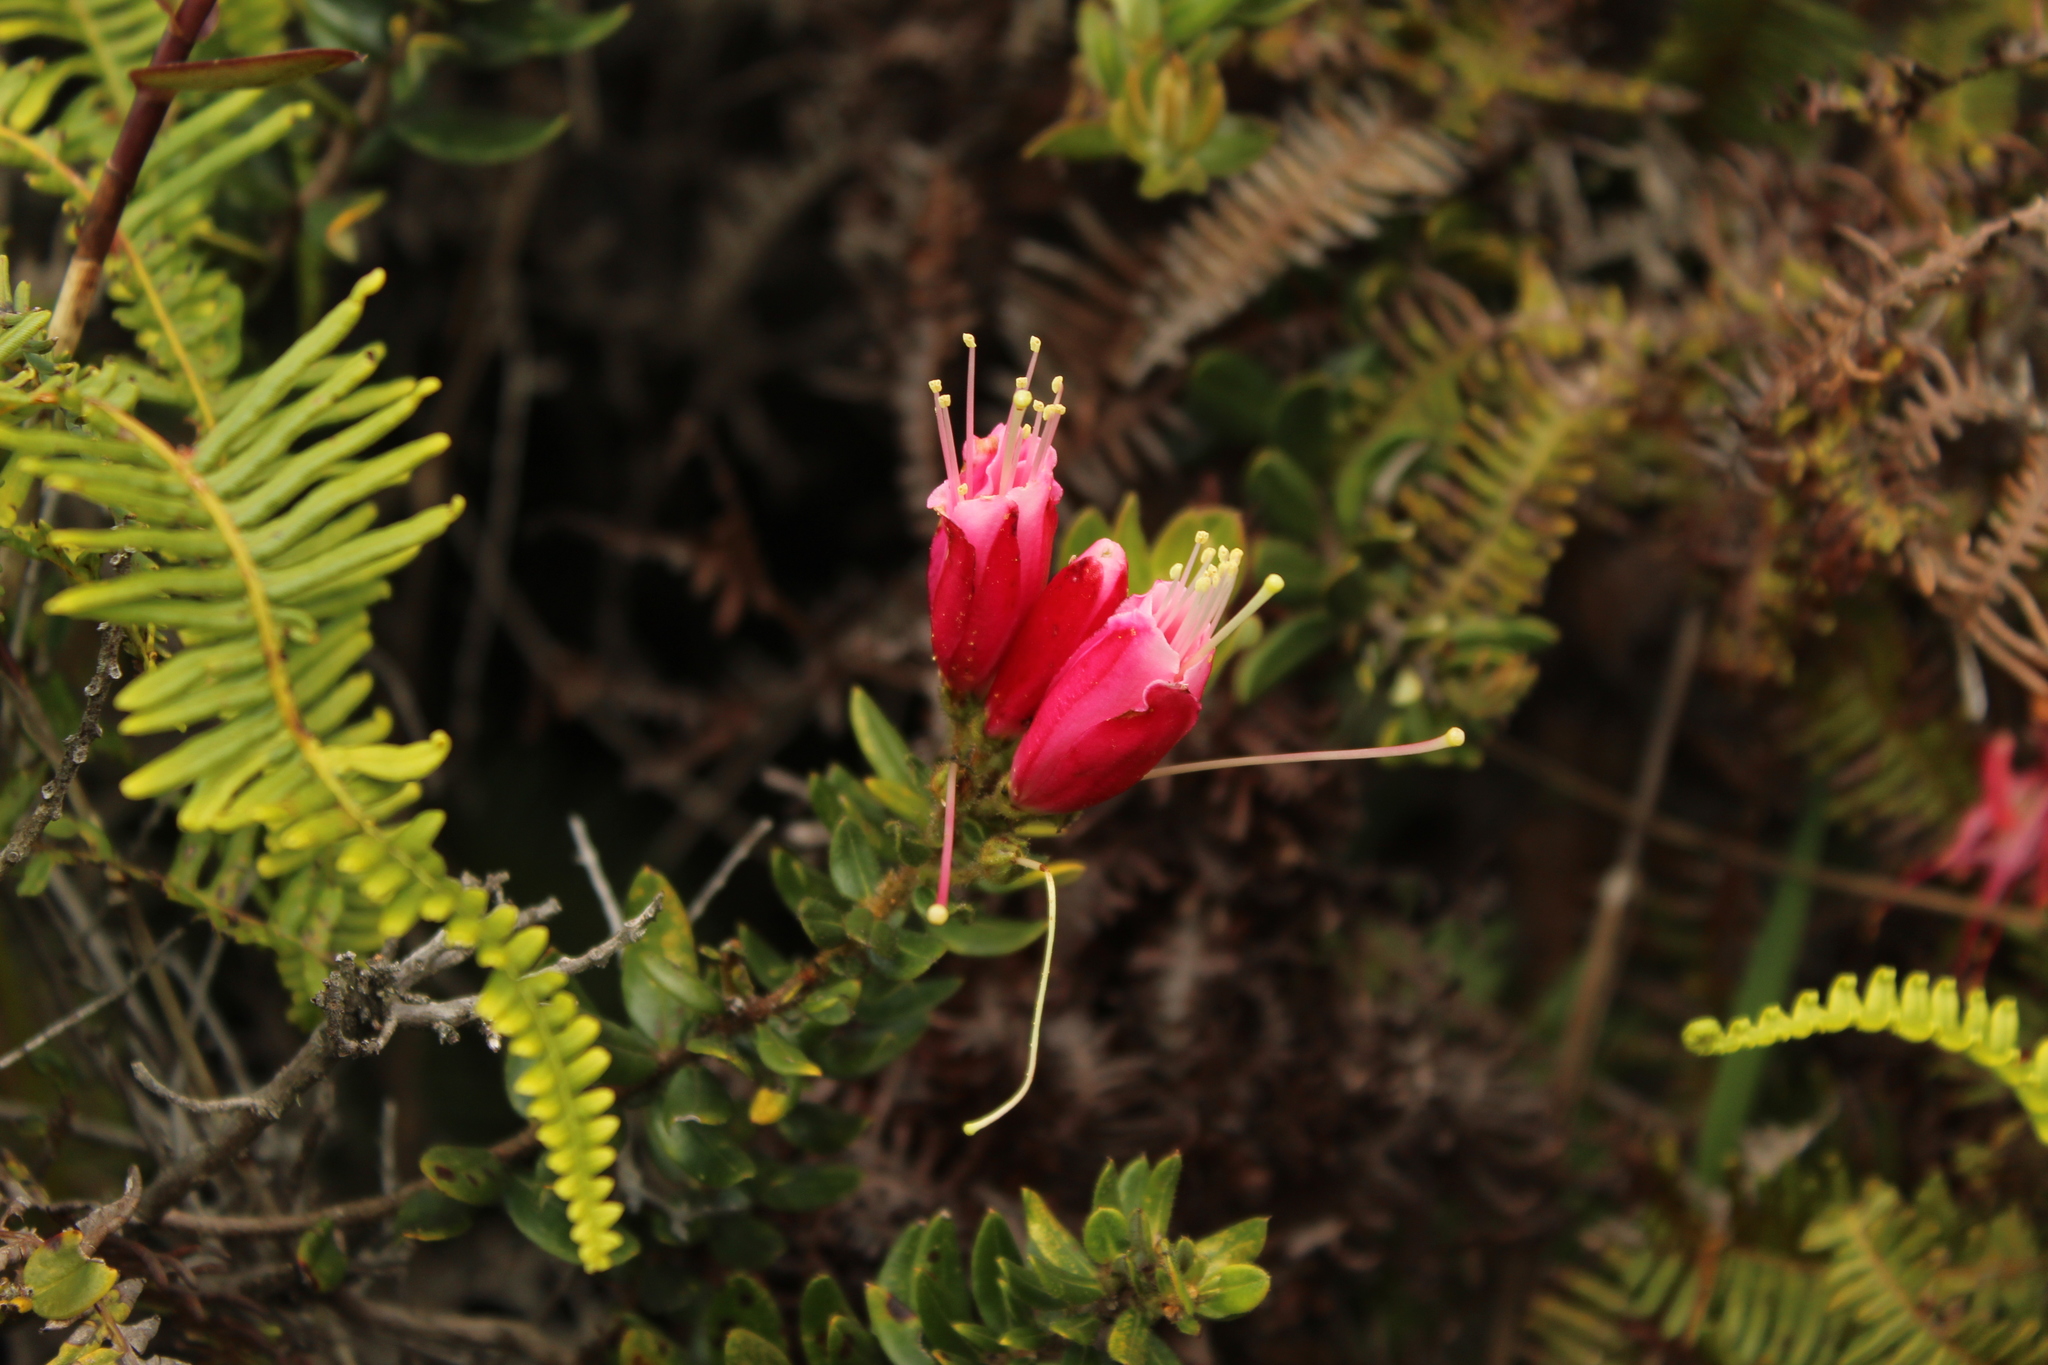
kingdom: Plantae
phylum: Tracheophyta
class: Magnoliopsida
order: Ericales
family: Ericaceae
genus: Bejaria
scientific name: Bejaria resinosa
